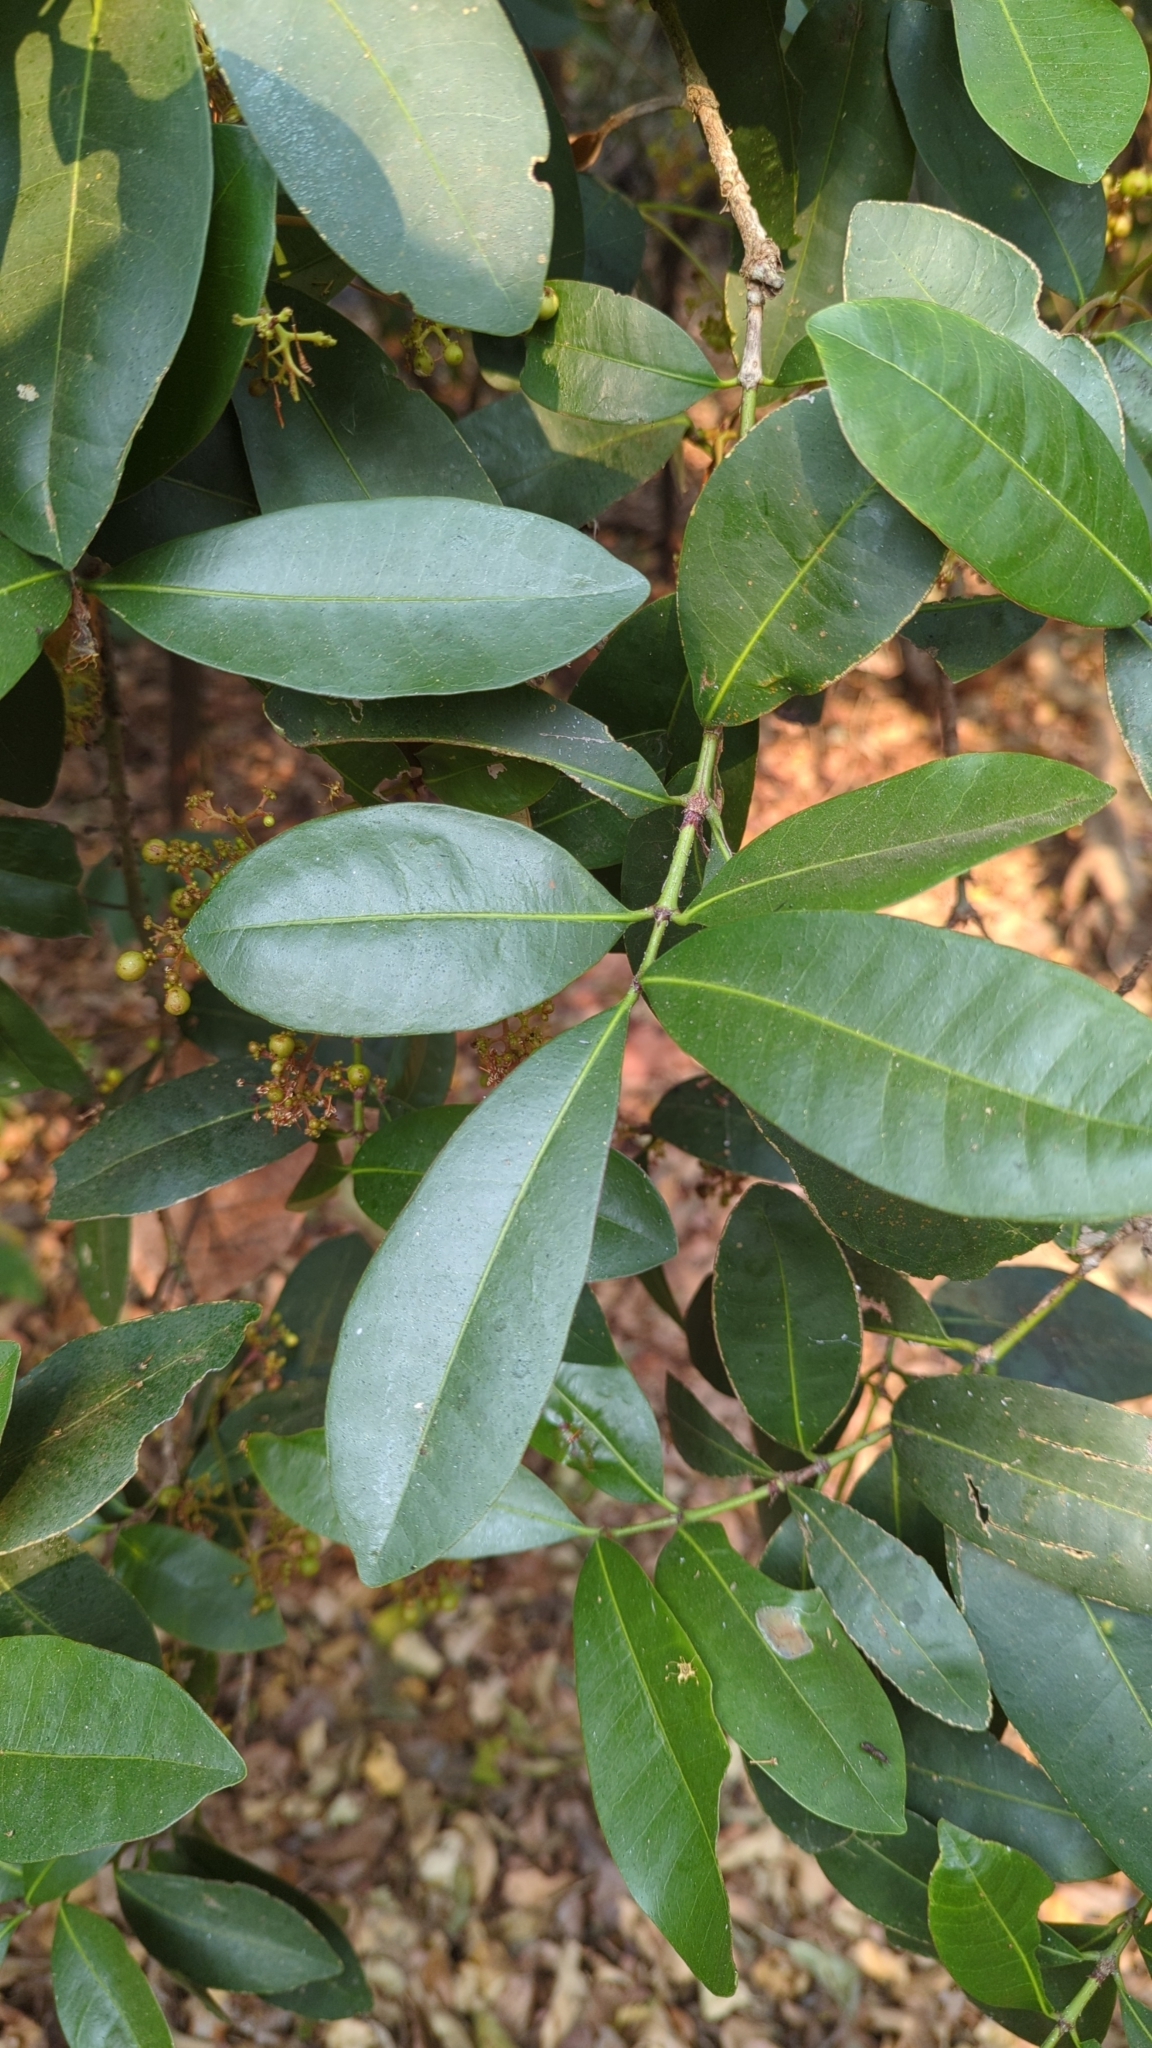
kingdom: Plantae
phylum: Tracheophyta
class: Magnoliopsida
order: Gentianales
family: Rubiaceae
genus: Ixora
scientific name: Ixora brachiata
